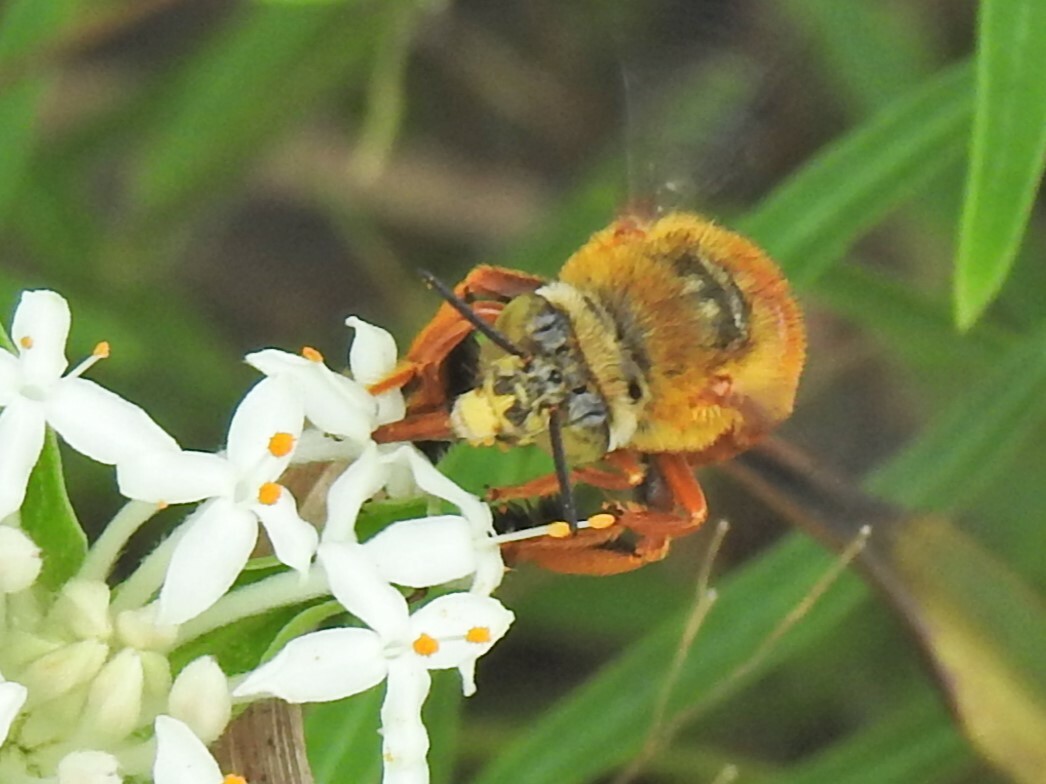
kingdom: Animalia
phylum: Arthropoda
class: Insecta
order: Hymenoptera
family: Apidae
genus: Amegilla
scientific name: Amegilla rhodoscymna
